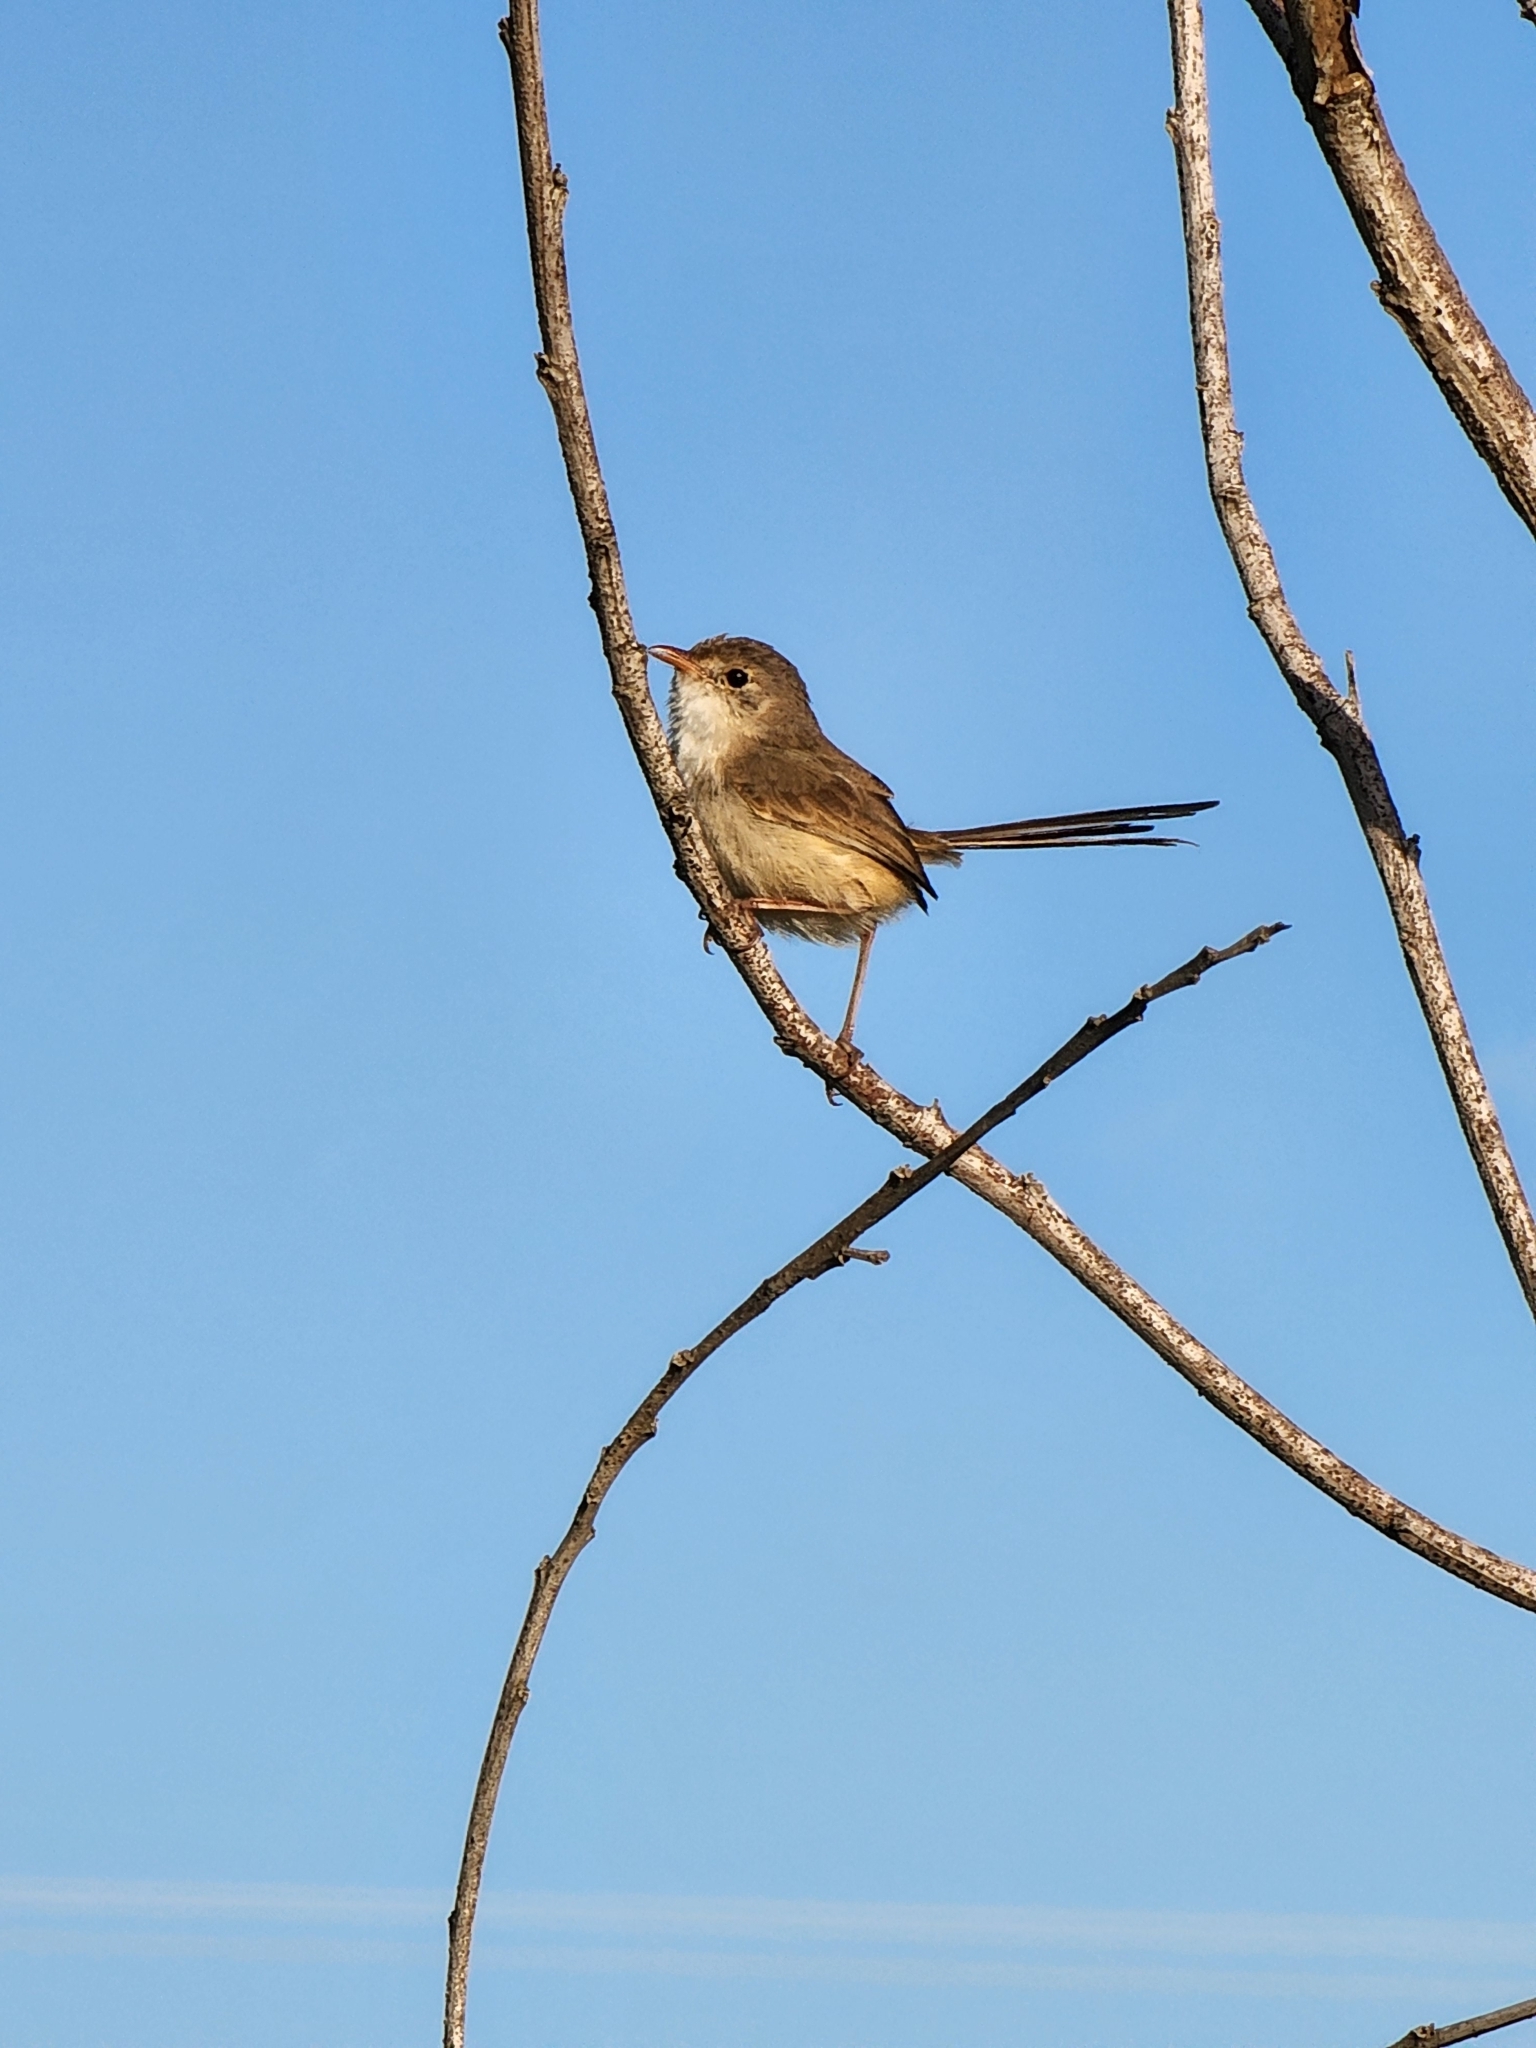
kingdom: Animalia
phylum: Chordata
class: Aves
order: Passeriformes
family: Maluridae
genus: Malurus
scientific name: Malurus melanocephalus
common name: Red-backed fairywren
